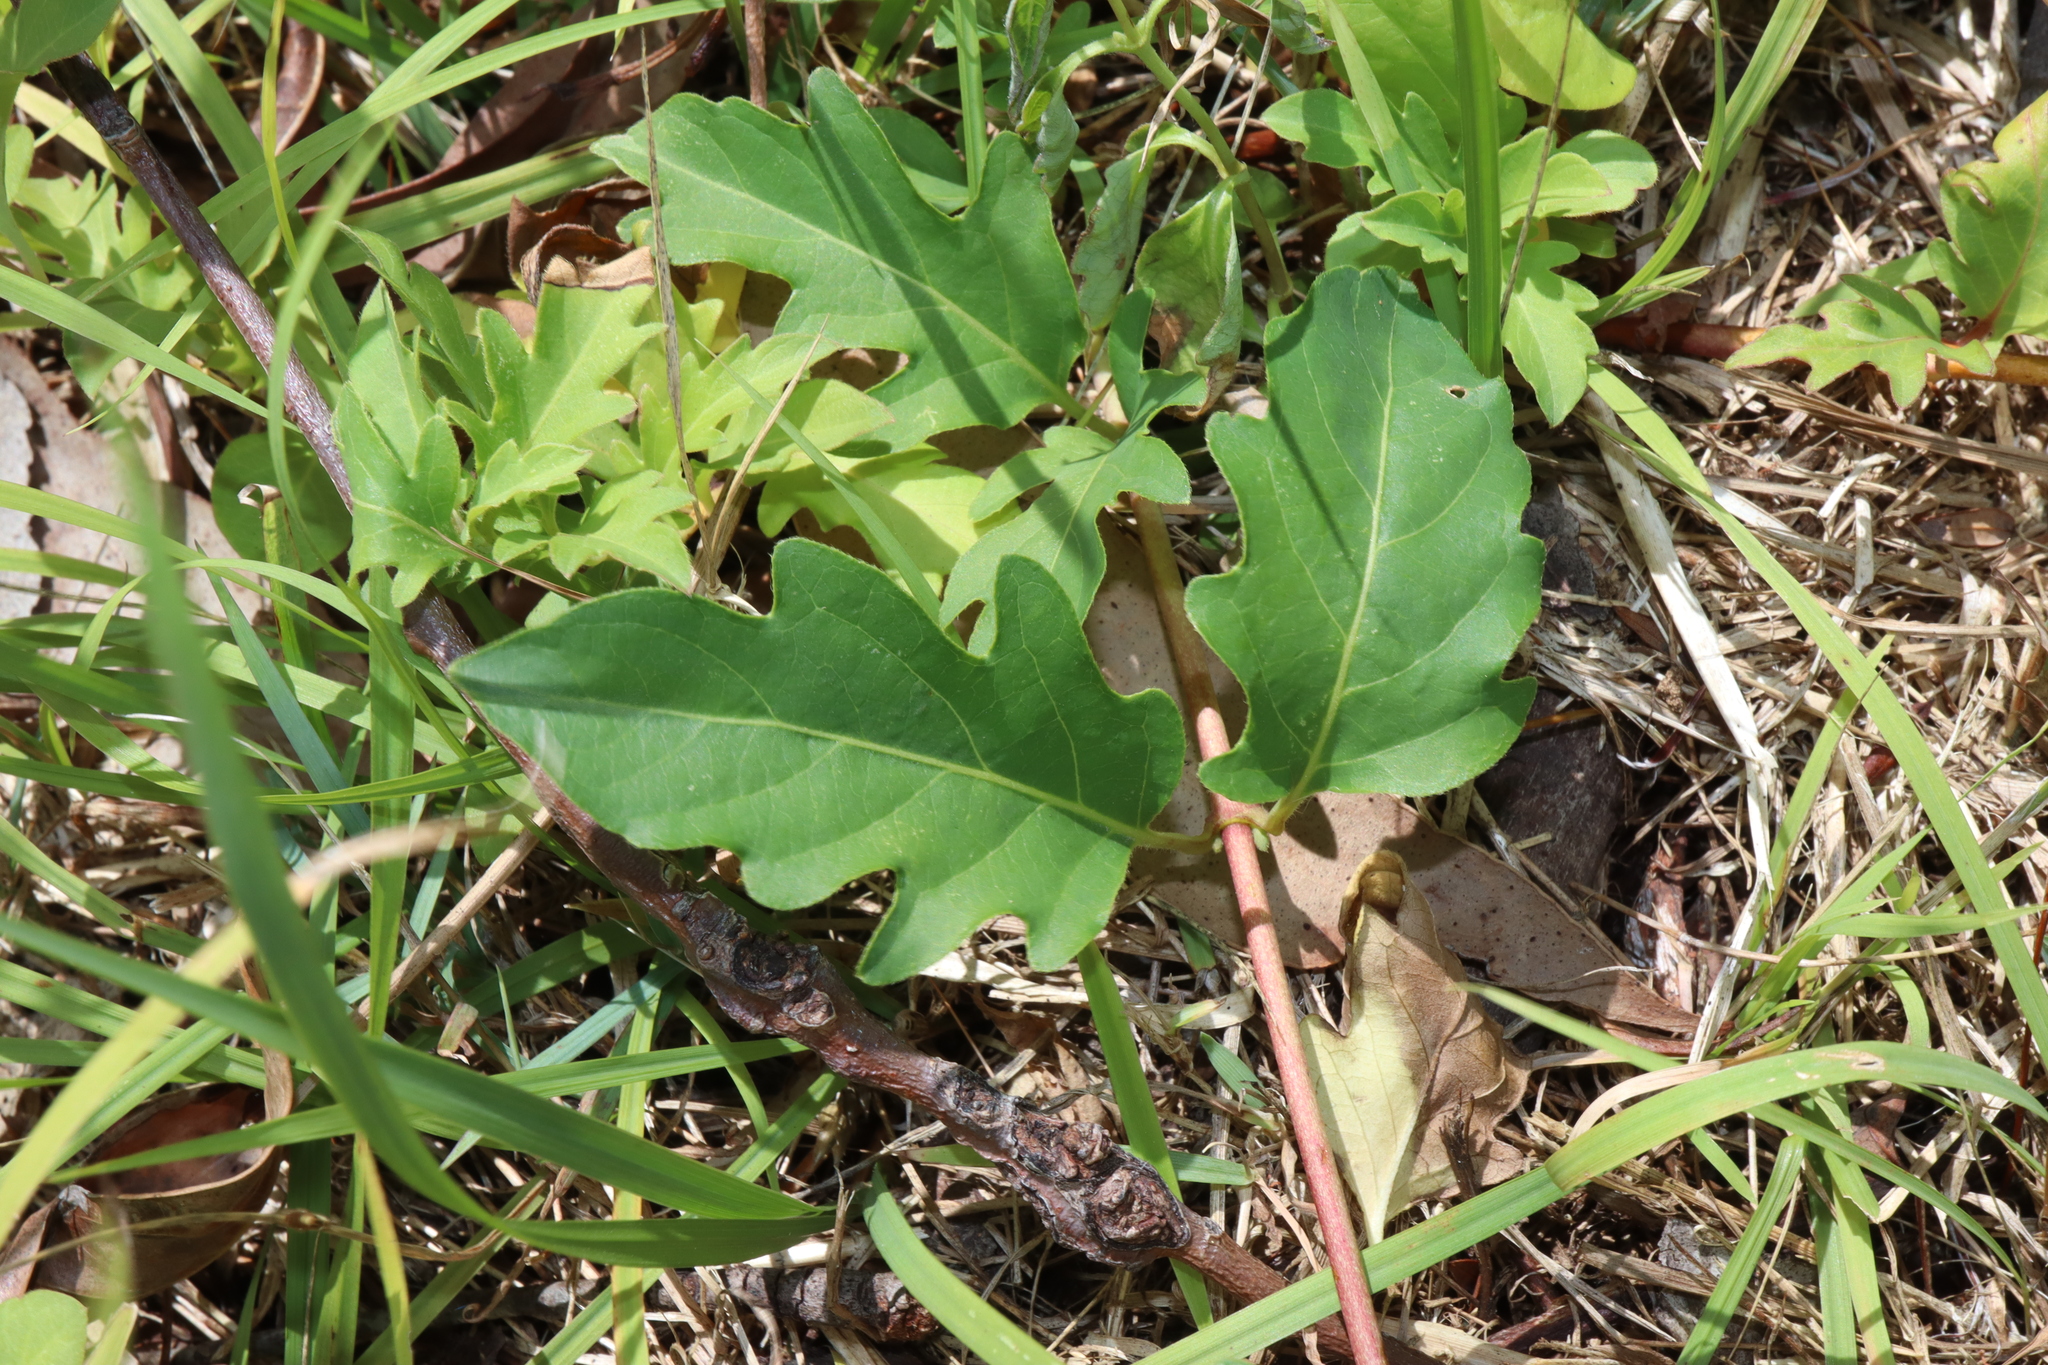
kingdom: Plantae
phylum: Tracheophyta
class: Magnoliopsida
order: Dipsacales
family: Caprifoliaceae
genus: Lonicera
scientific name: Lonicera japonica
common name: Japanese honeysuckle
